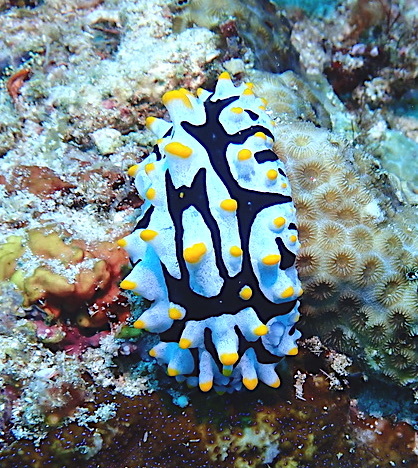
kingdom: Animalia
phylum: Mollusca
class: Gastropoda
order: Nudibranchia
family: Phyllidiidae
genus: Phyllidia
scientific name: Phyllidia varicosa
